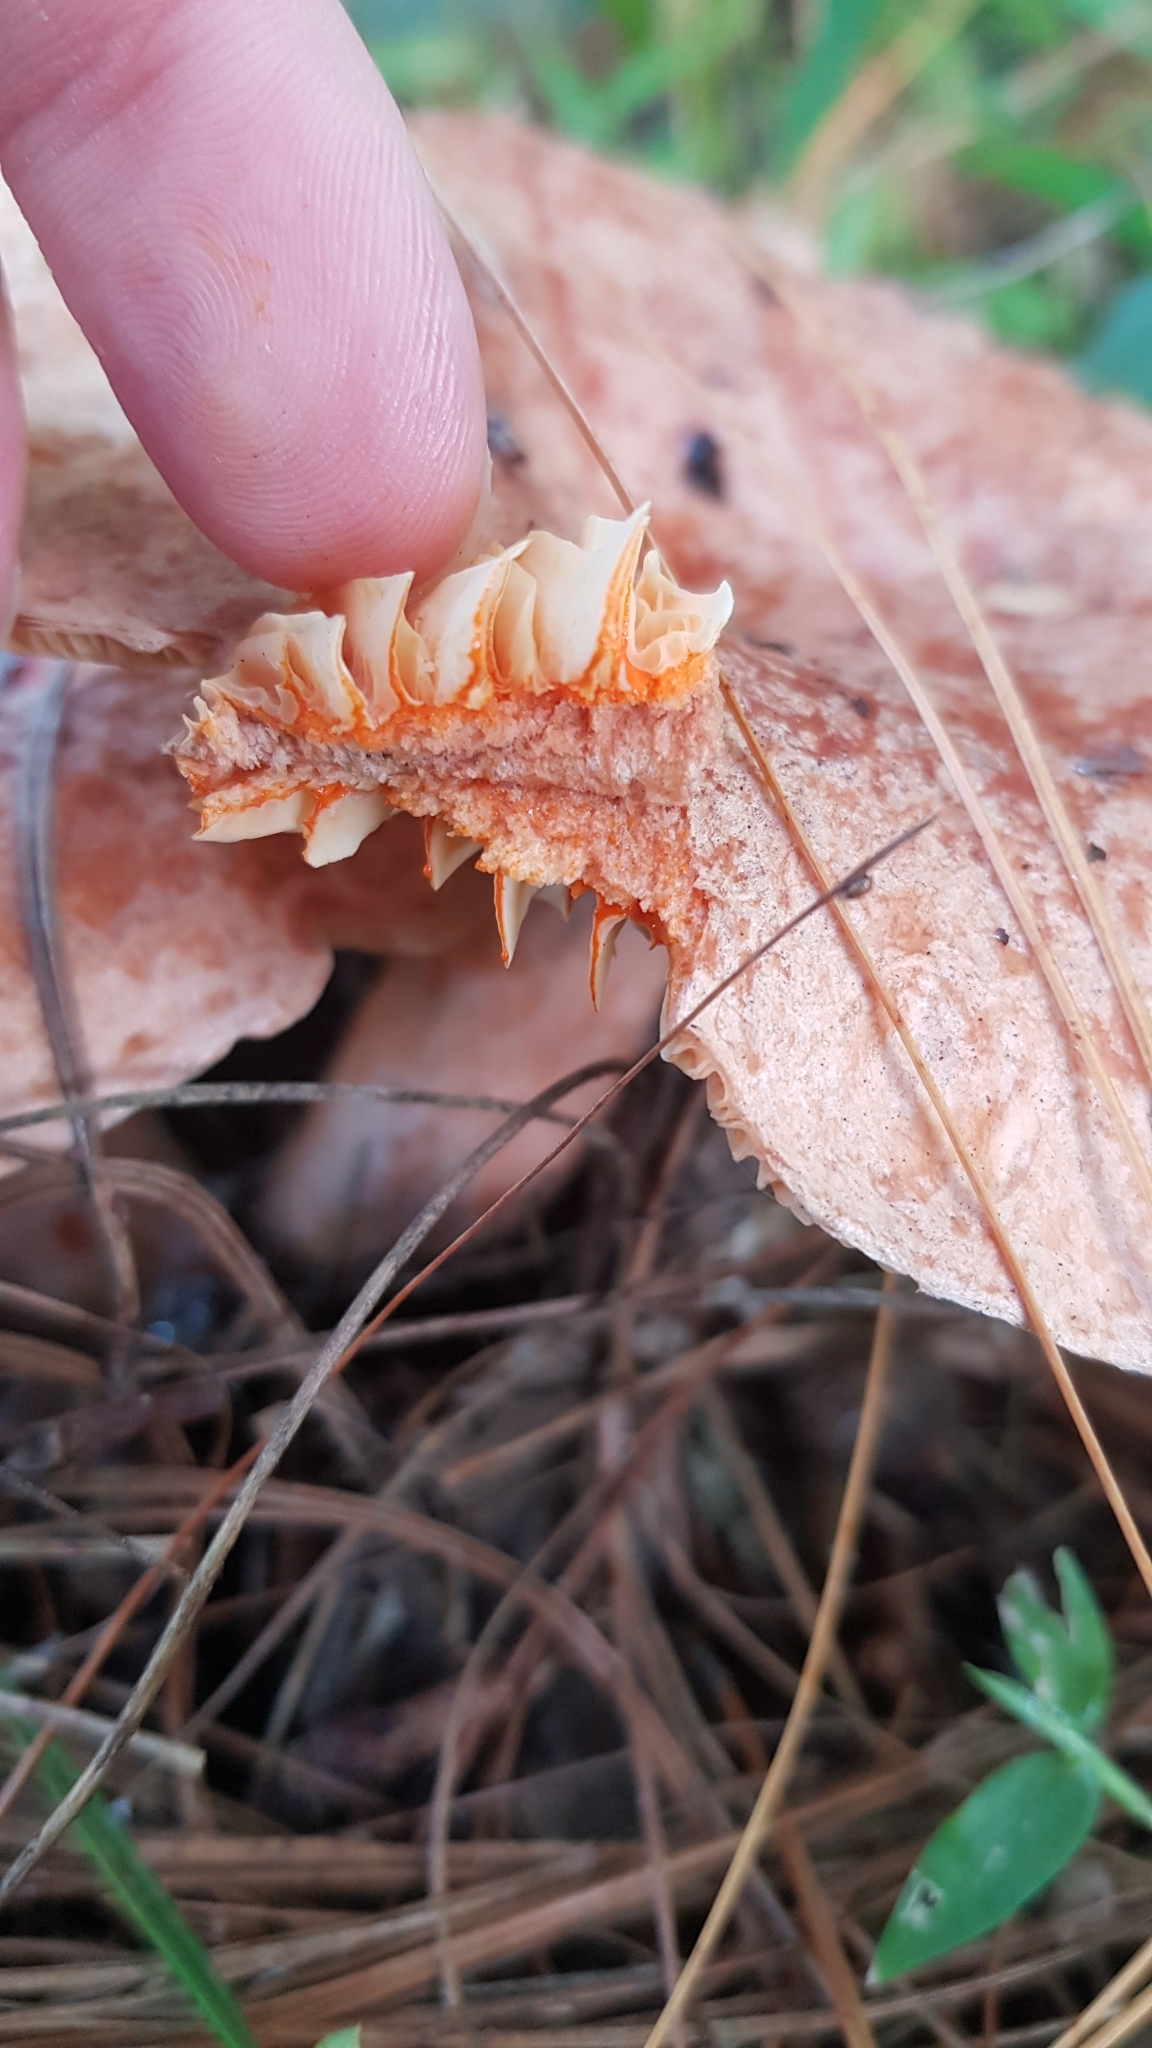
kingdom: Fungi
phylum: Basidiomycota
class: Agaricomycetes
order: Russulales
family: Russulaceae
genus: Lactarius
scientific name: Lactarius deliciosus
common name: Saffron milk-cap
